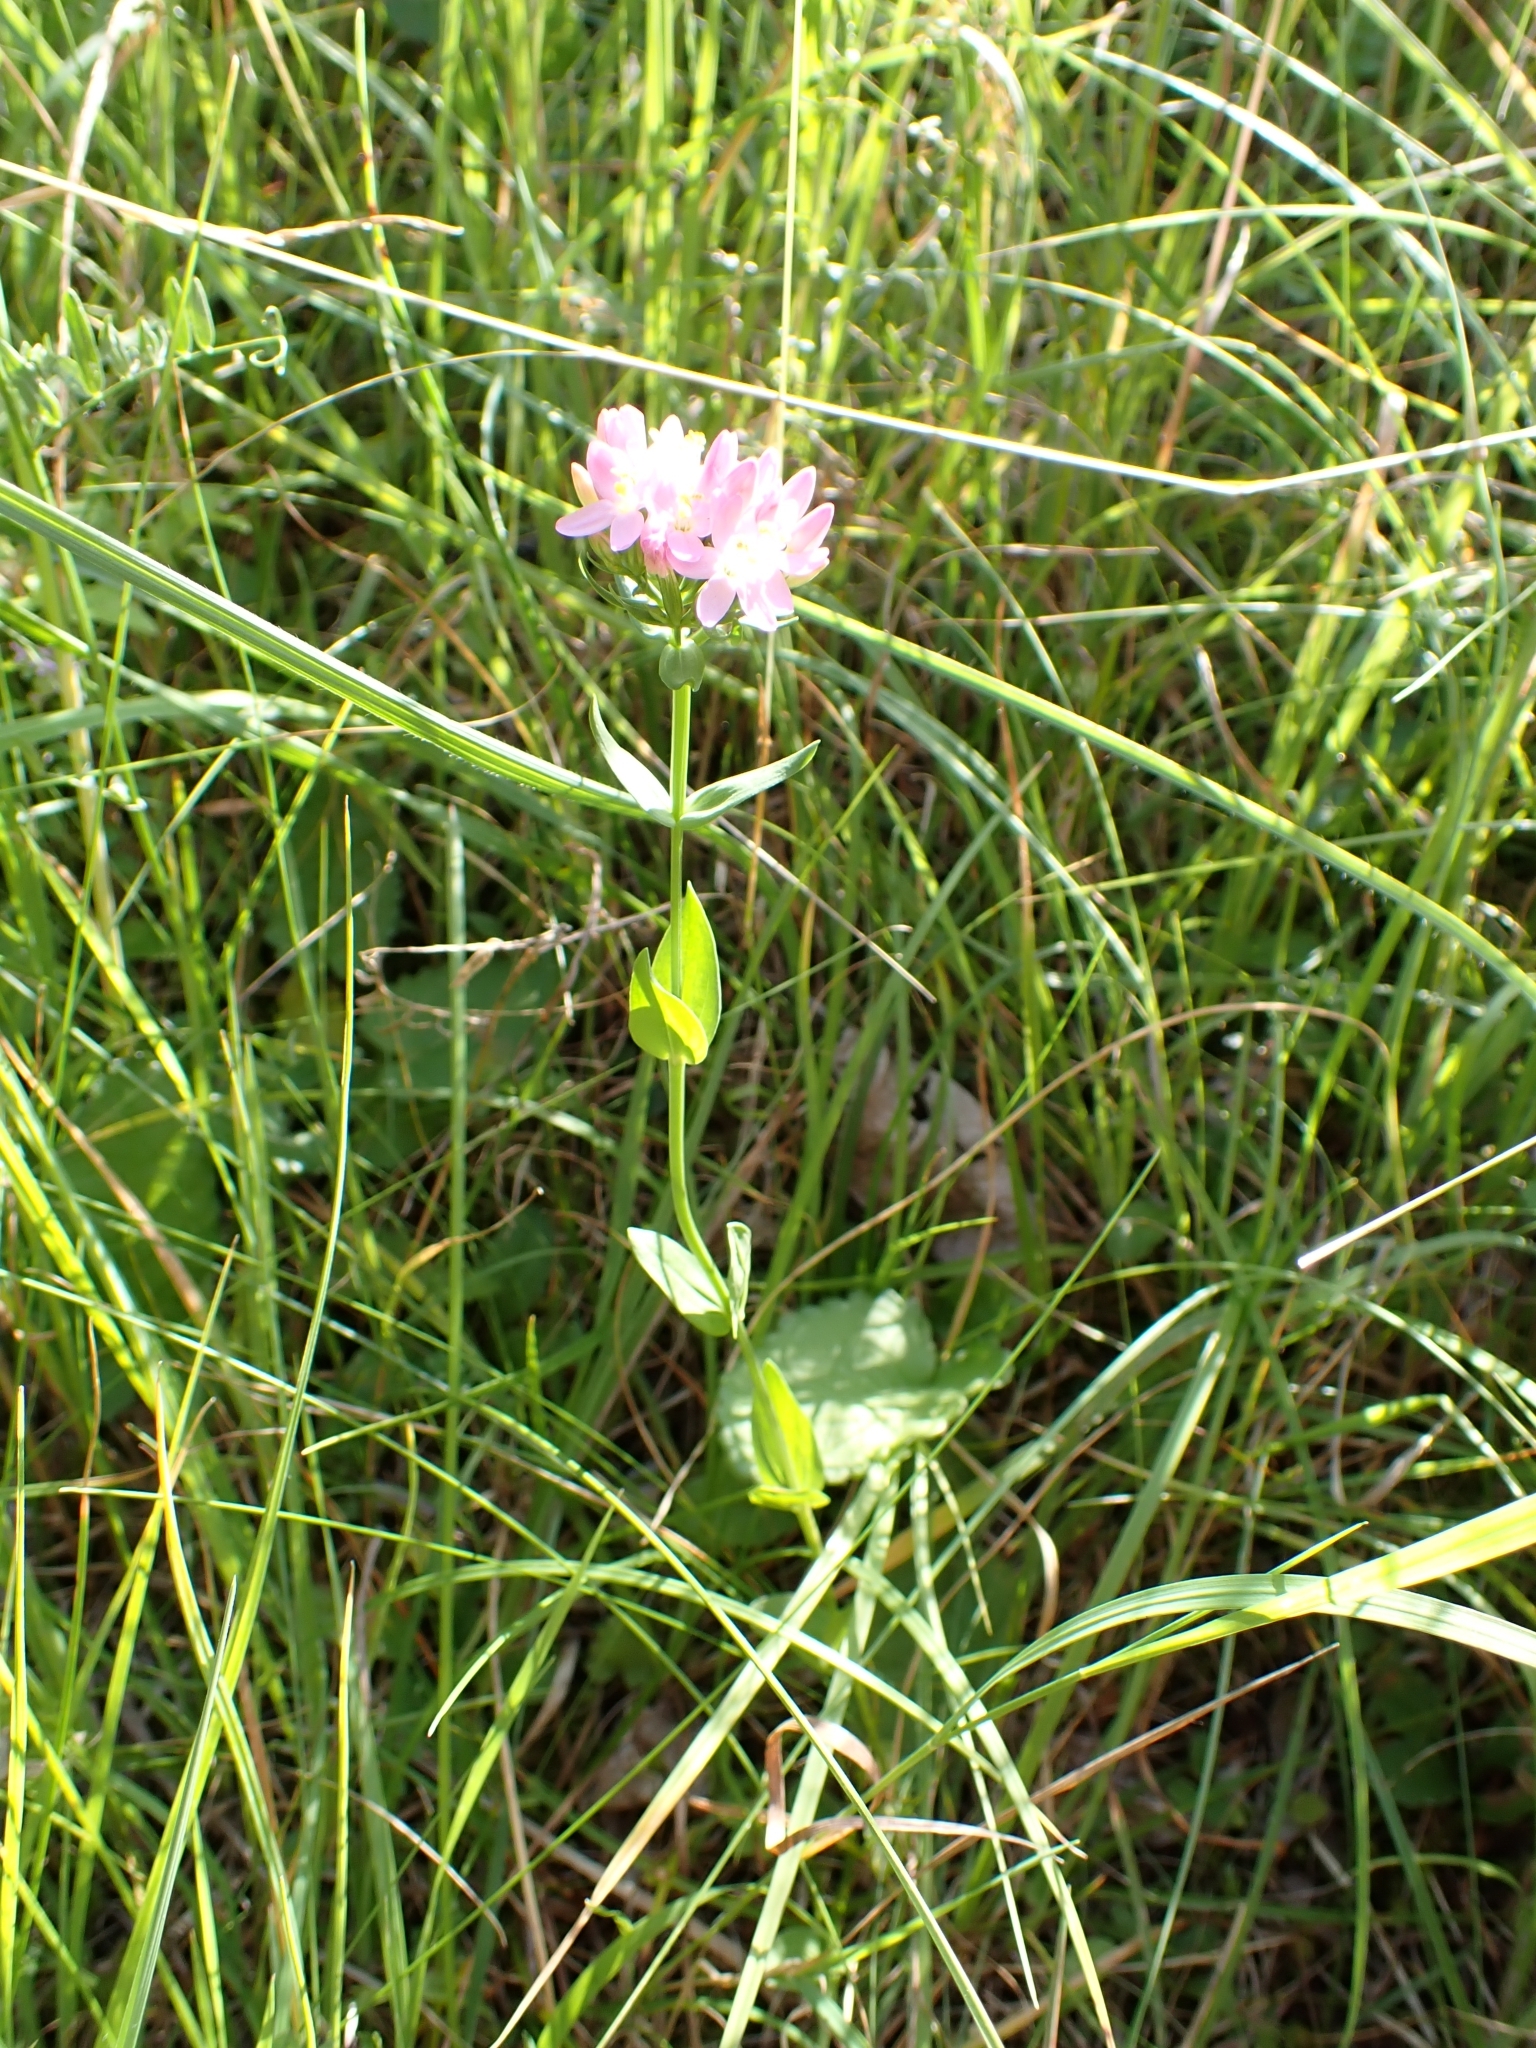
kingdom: Plantae
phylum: Tracheophyta
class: Magnoliopsida
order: Gentianales
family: Gentianaceae
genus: Centaurium
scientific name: Centaurium erythraea
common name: Common centaury
